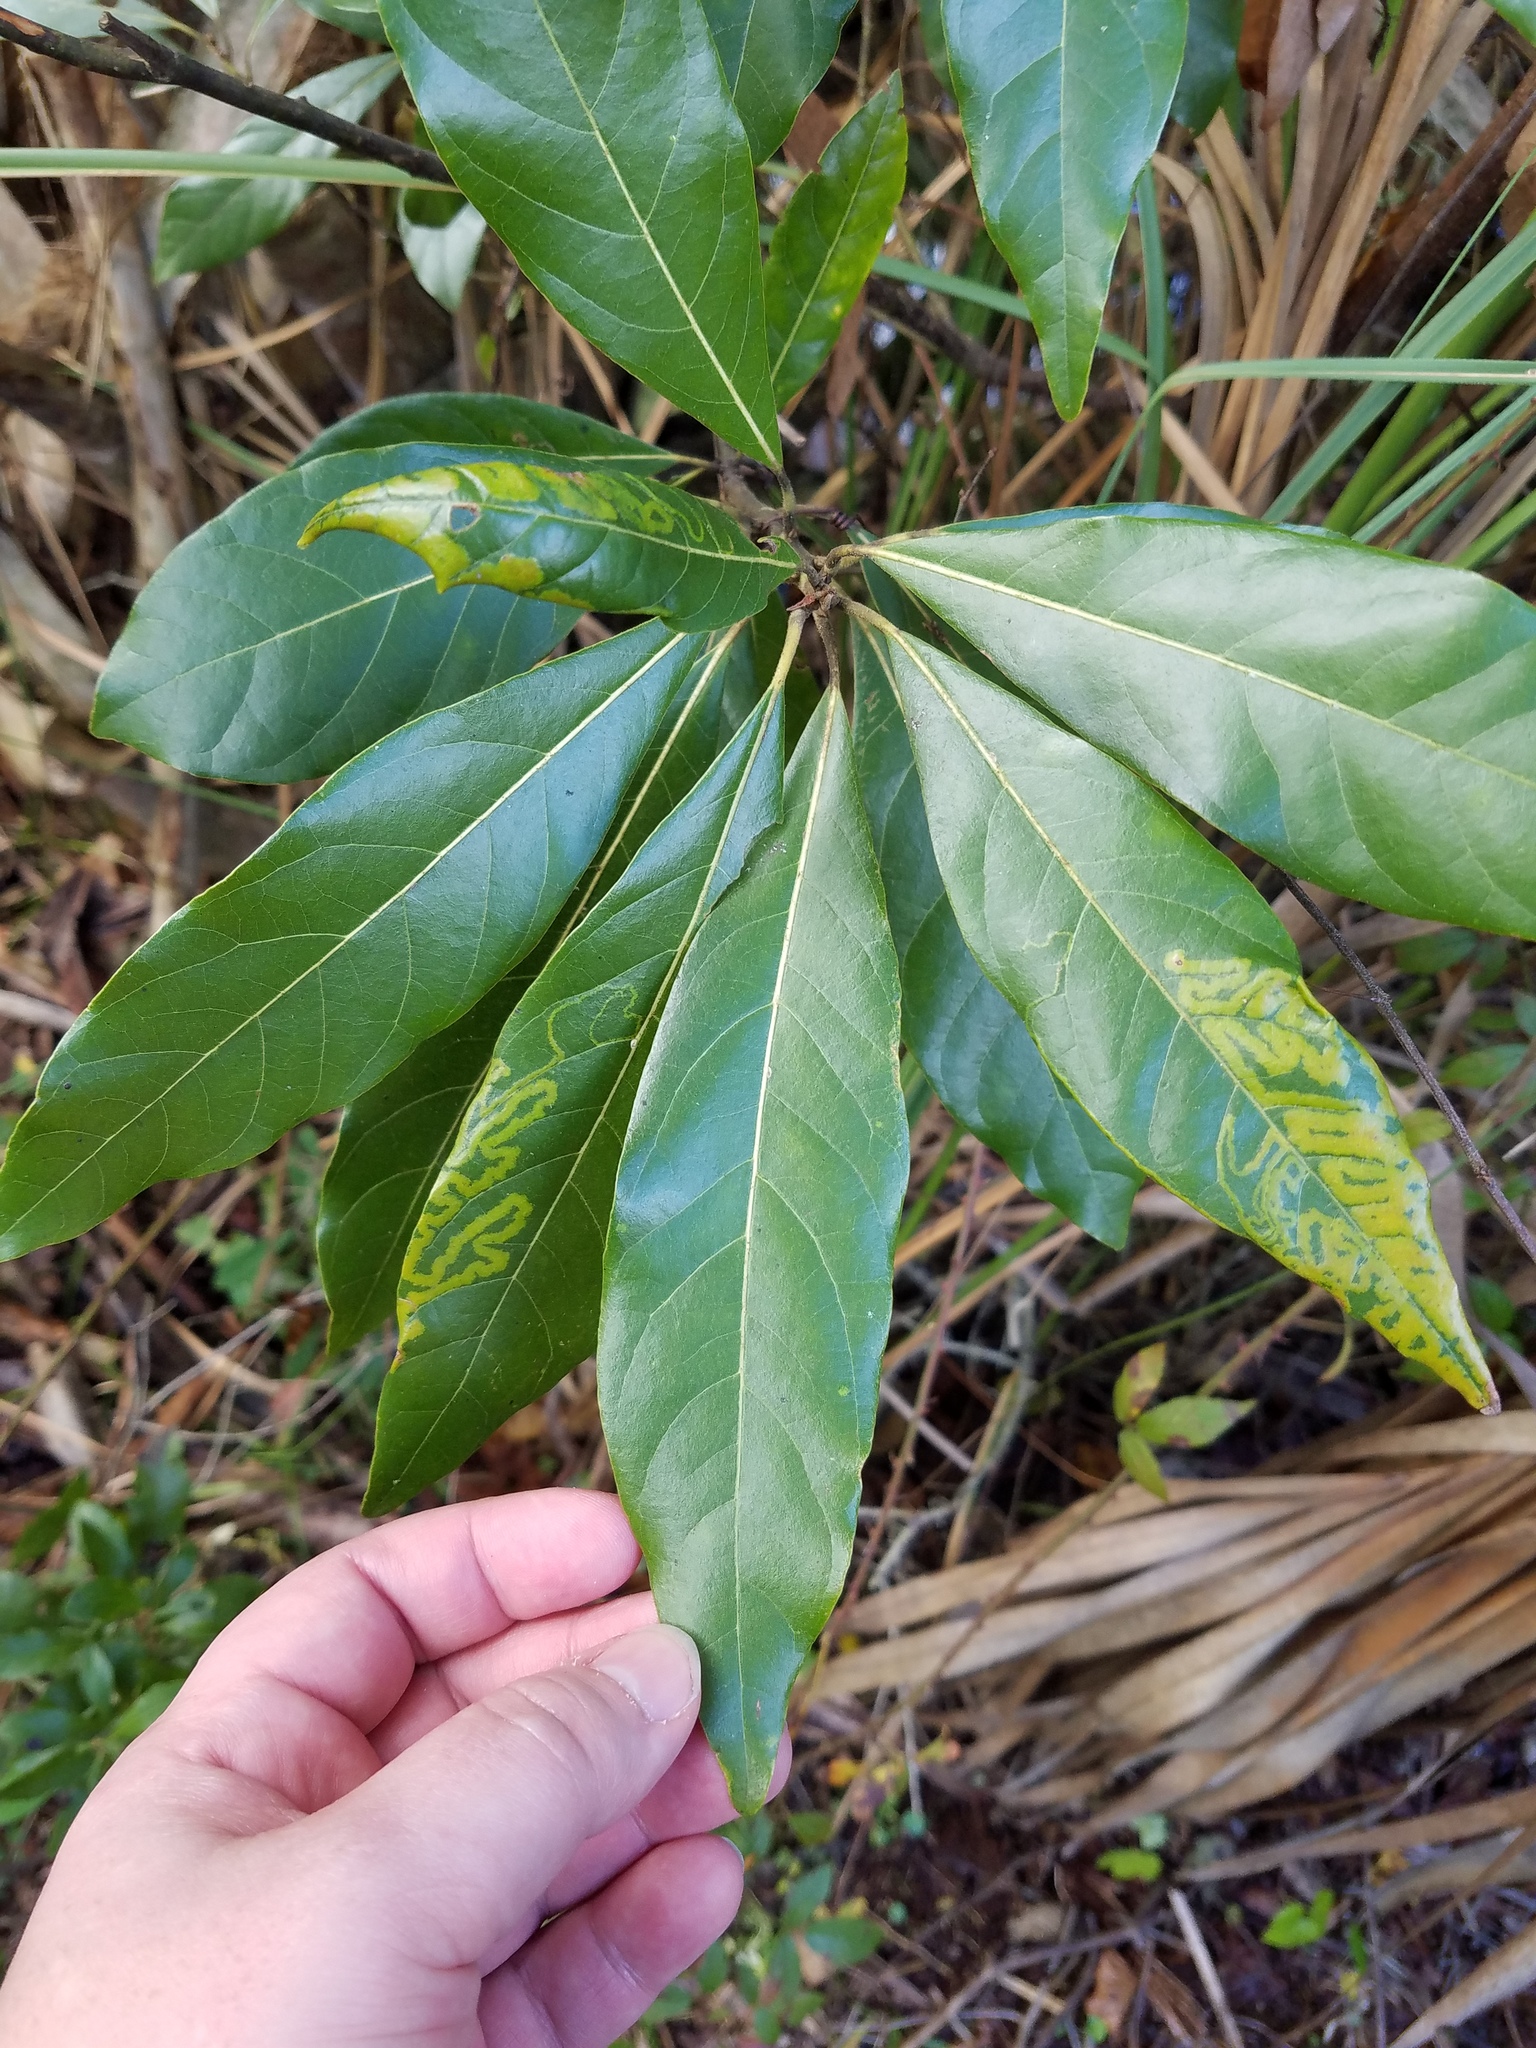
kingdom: Plantae
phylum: Tracheophyta
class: Magnoliopsida
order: Laurales
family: Lauraceae
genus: Persea
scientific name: Persea palustris
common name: Swampbay
